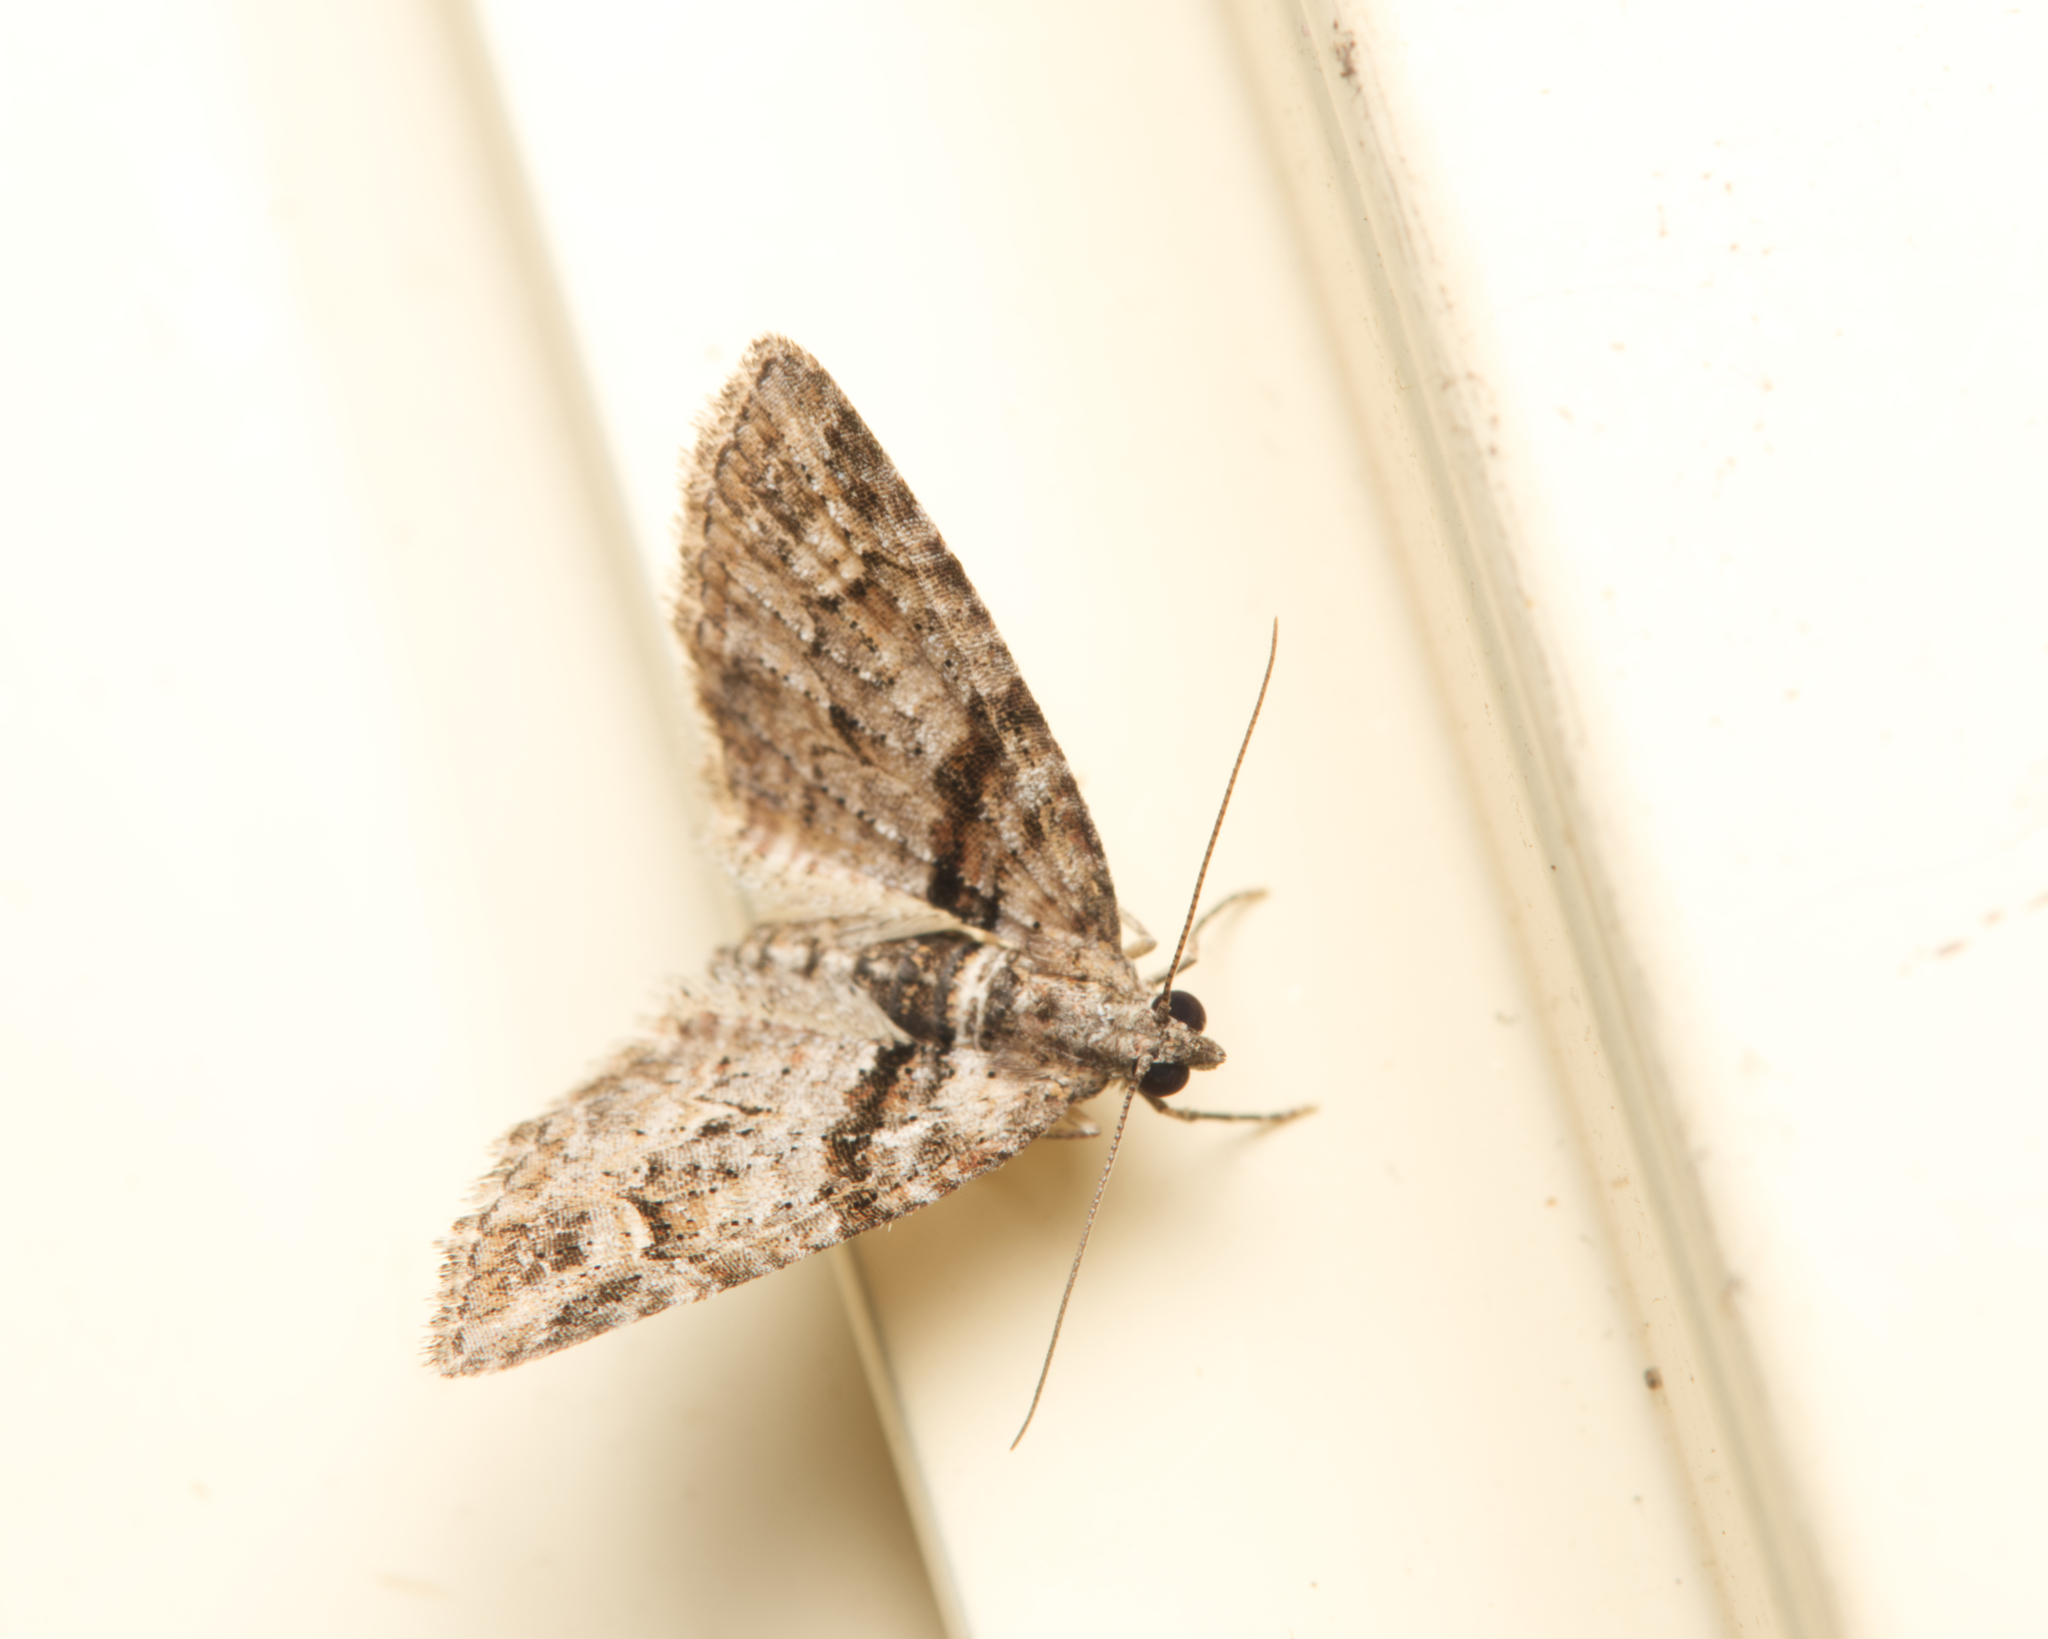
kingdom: Animalia
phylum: Arthropoda
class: Insecta
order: Lepidoptera
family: Geometridae
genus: Phrissogonus
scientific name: Phrissogonus laticostata
